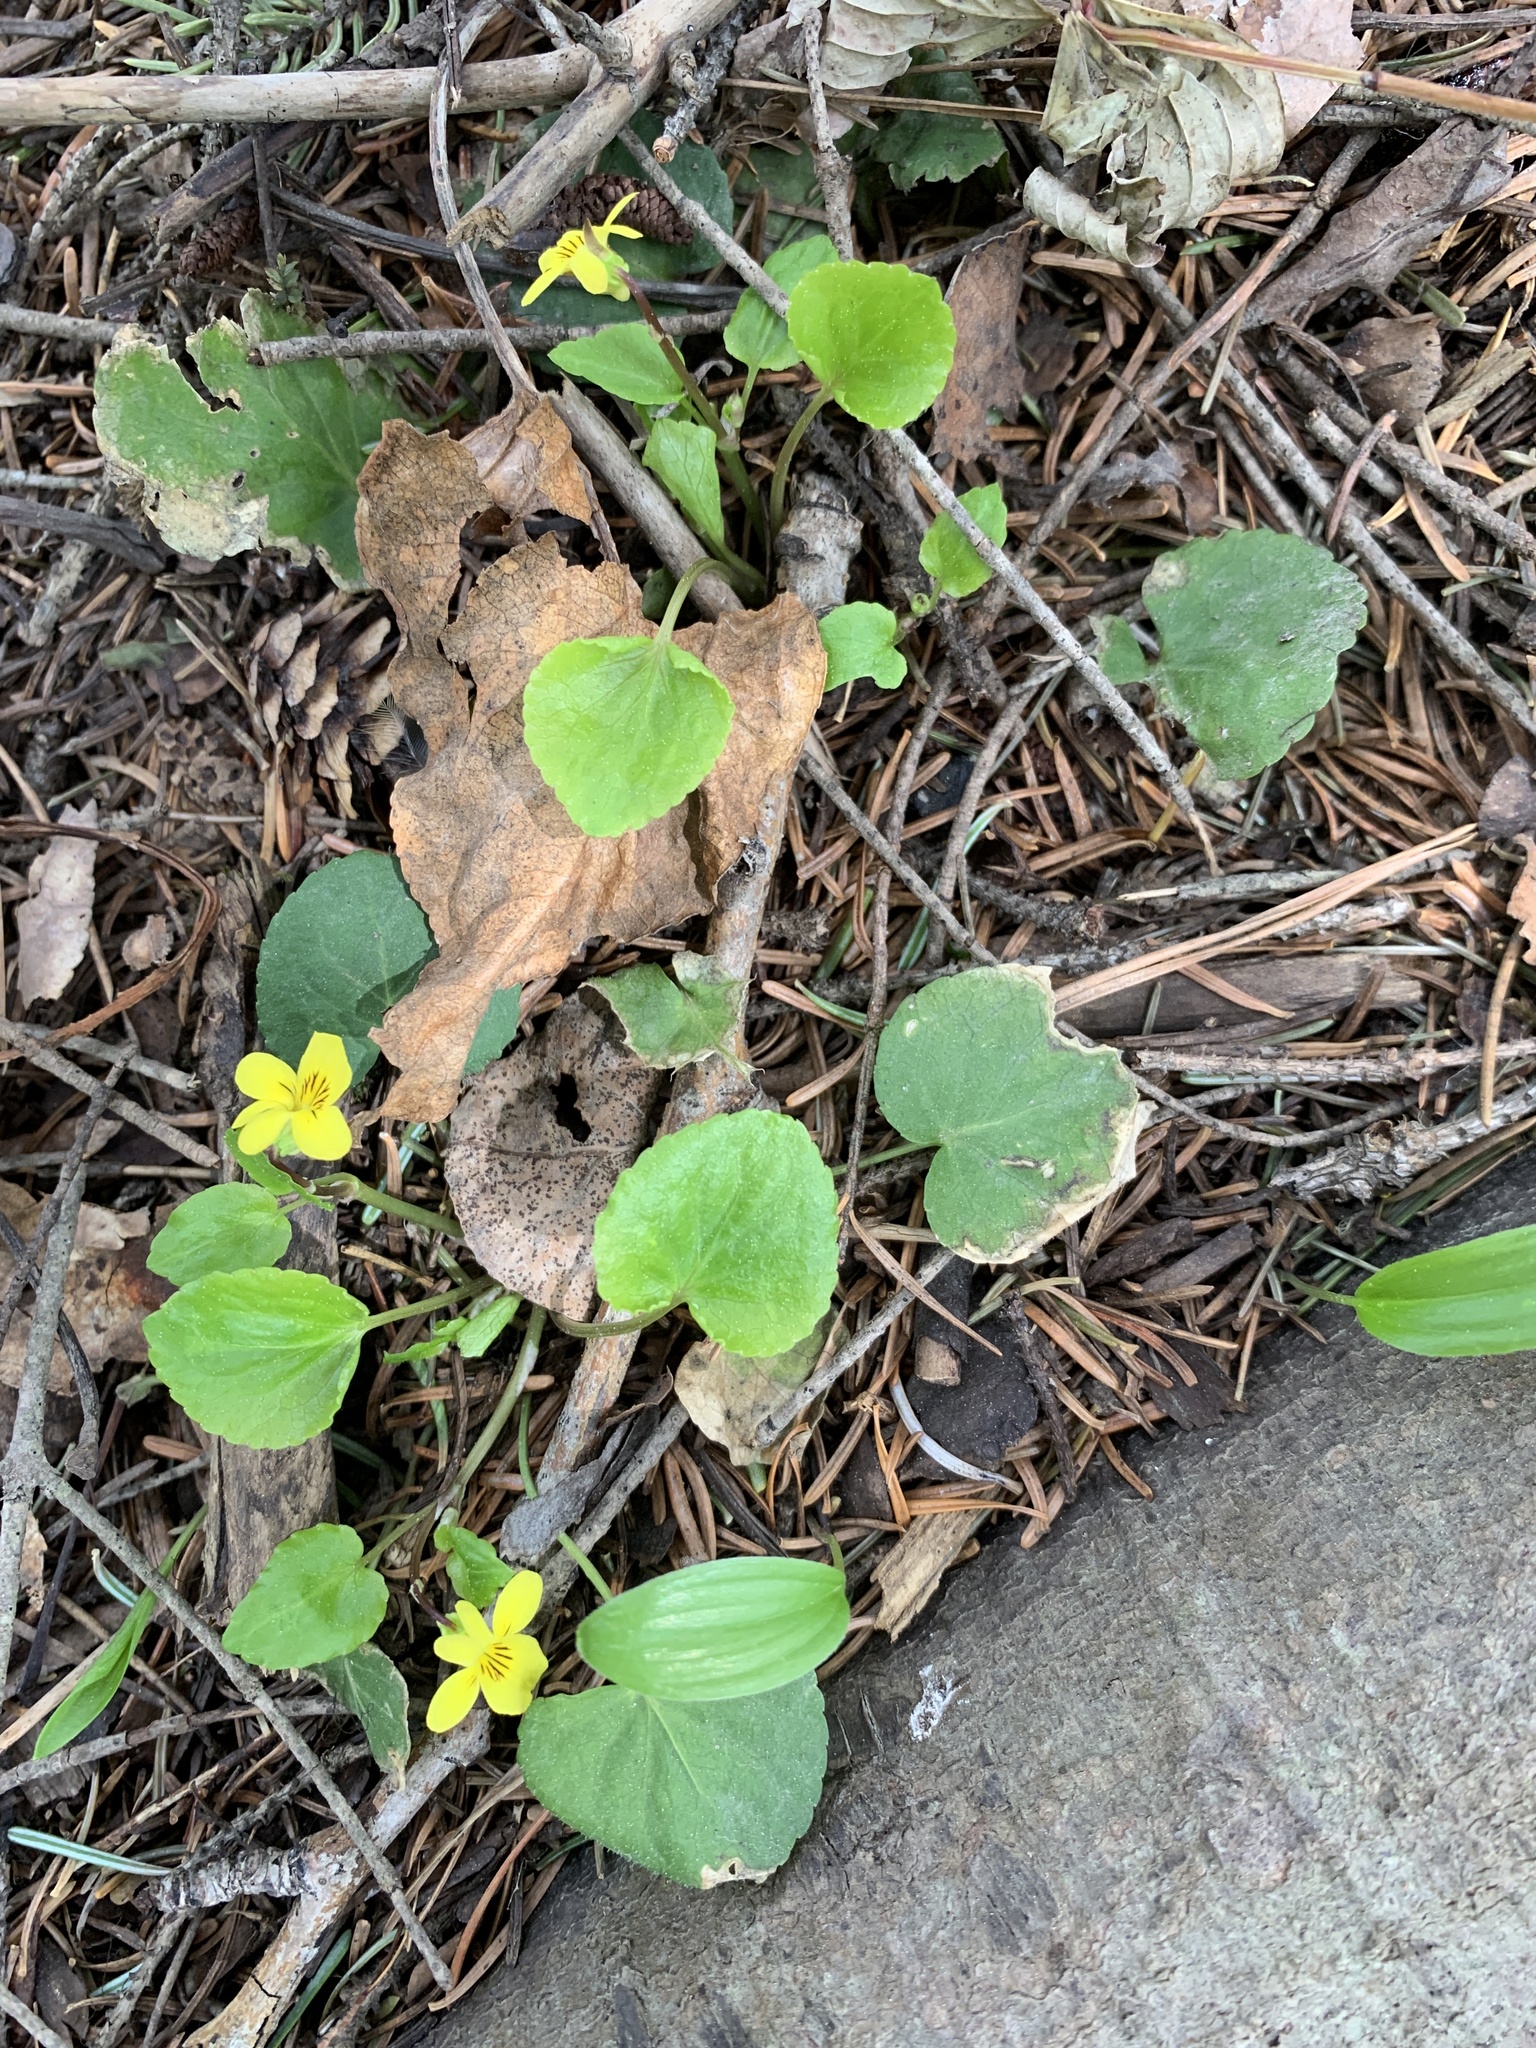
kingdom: Plantae
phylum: Tracheophyta
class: Magnoliopsida
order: Malpighiales
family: Violaceae
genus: Viola
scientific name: Viola glabella
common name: Stream violet
